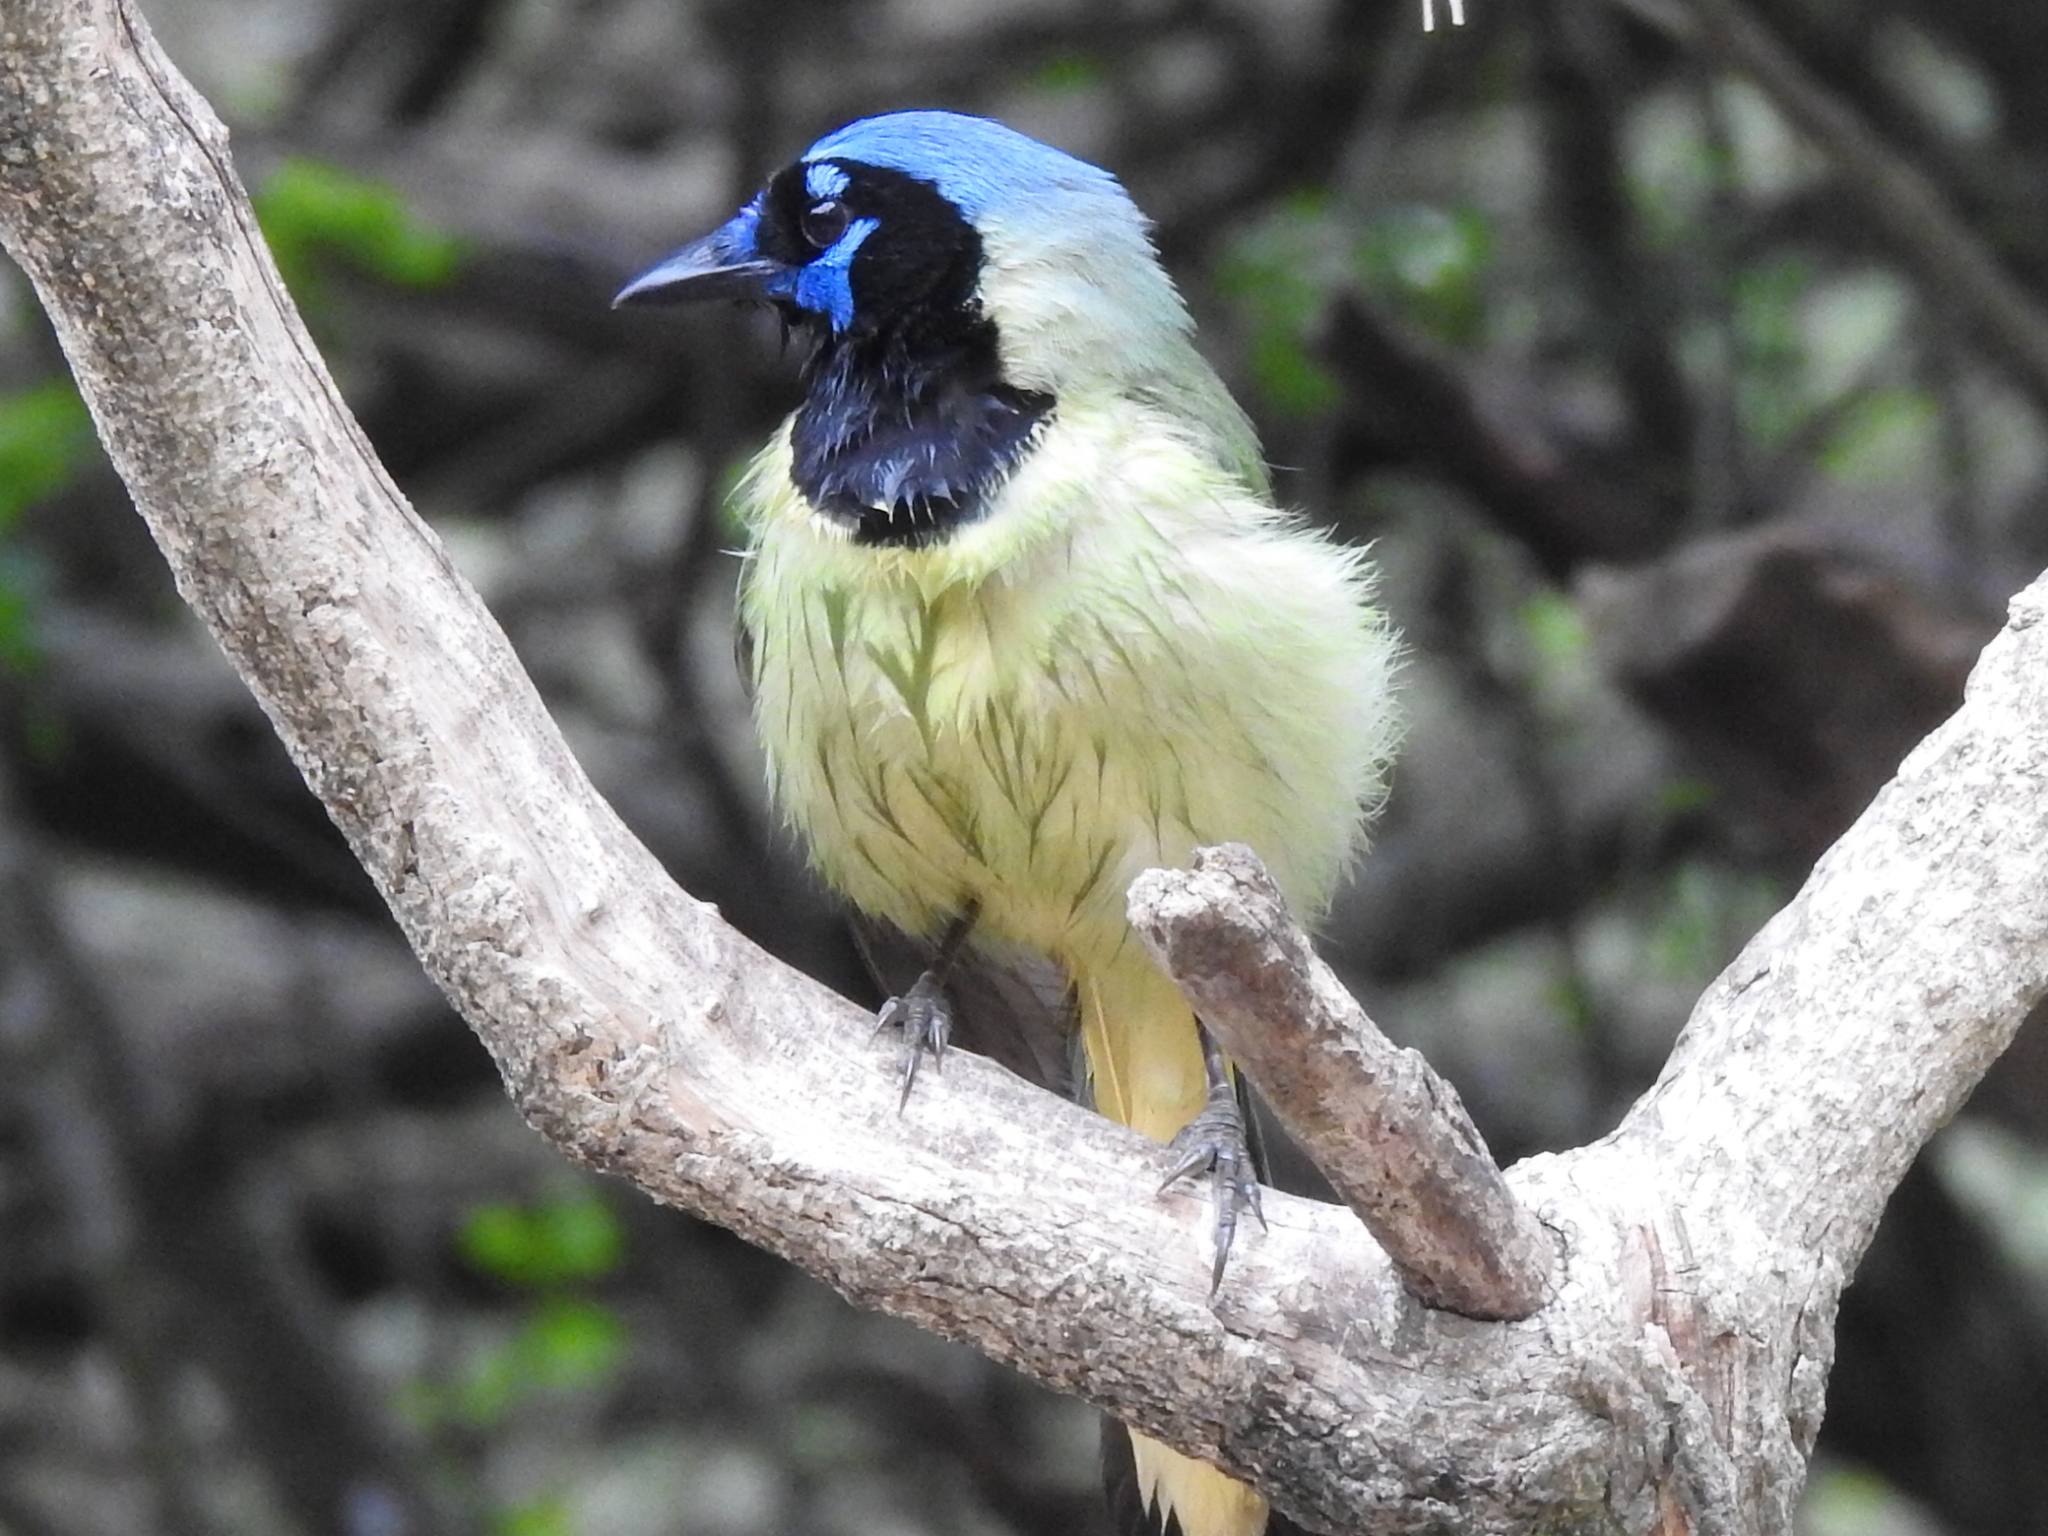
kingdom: Animalia
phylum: Chordata
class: Aves
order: Passeriformes
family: Corvidae
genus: Cyanocorax
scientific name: Cyanocorax yncas
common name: Green jay
